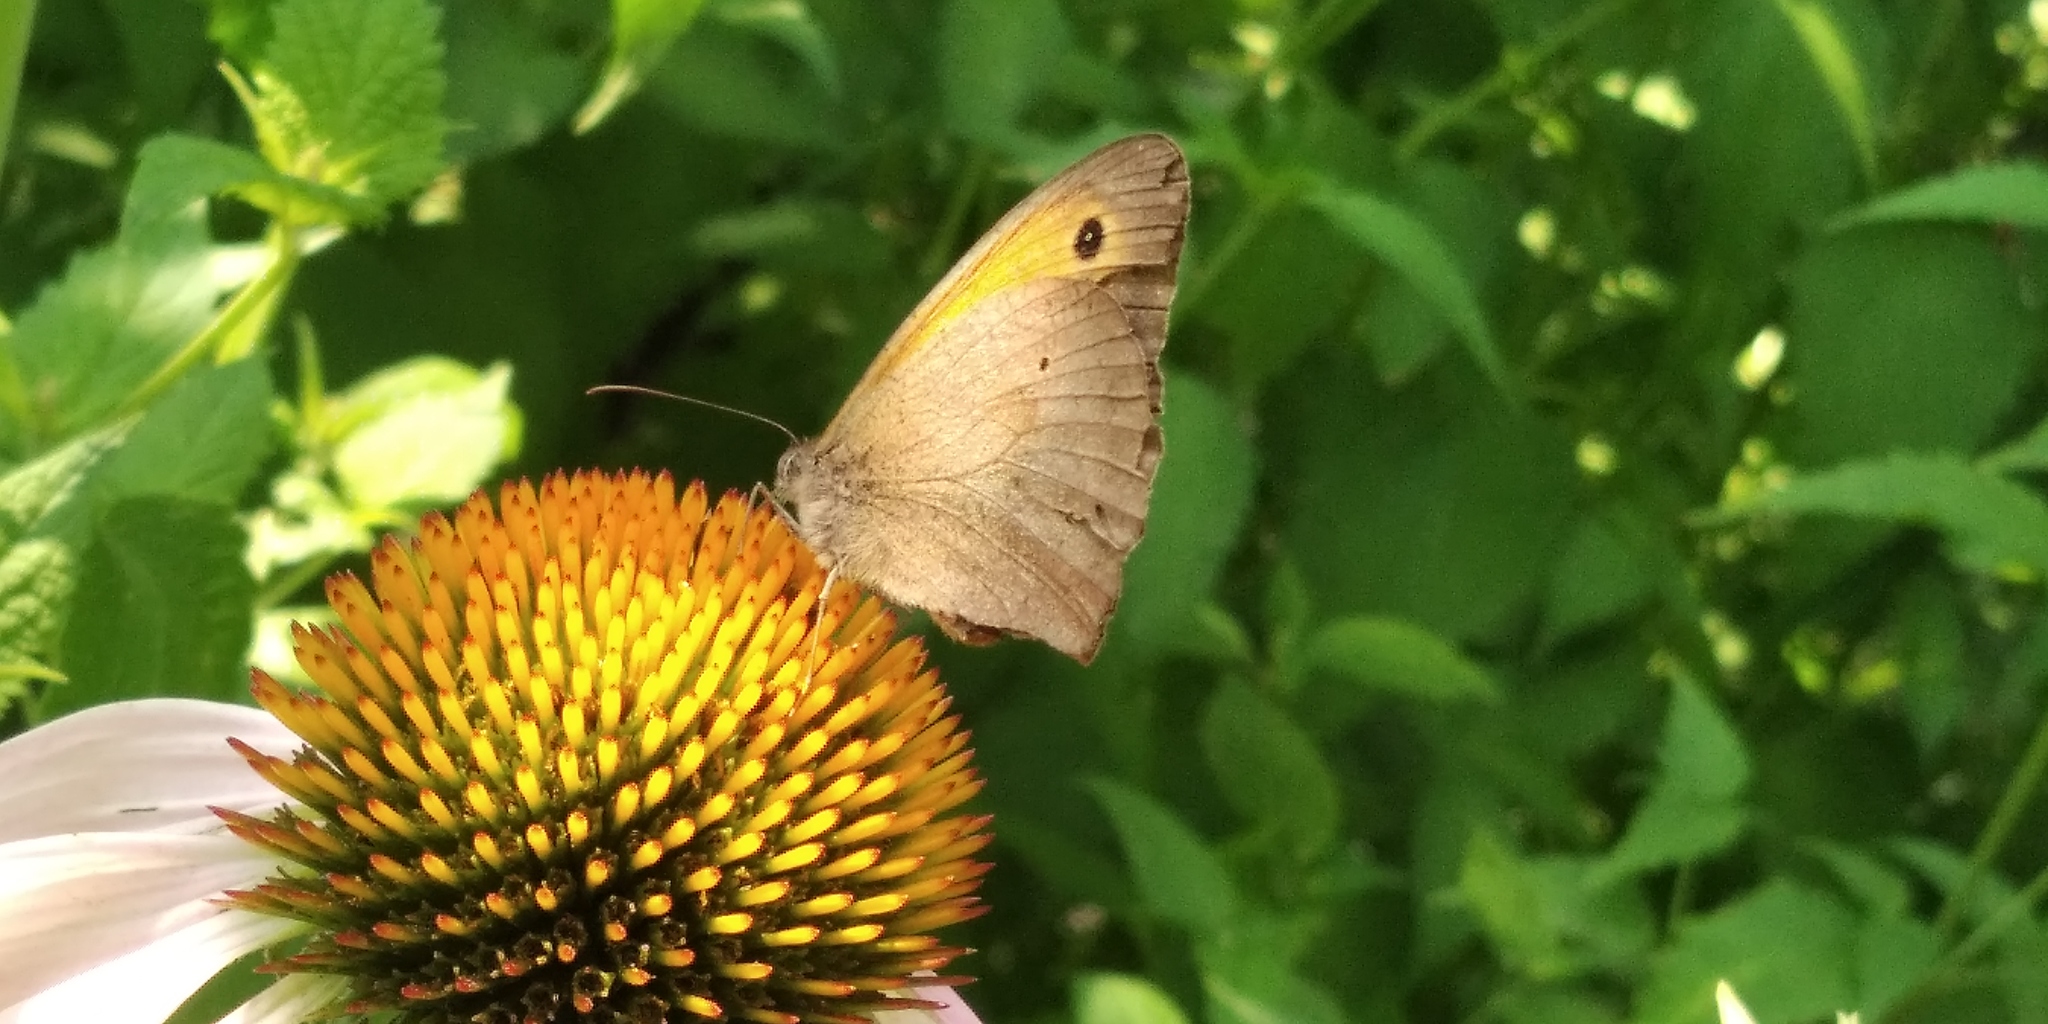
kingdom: Animalia
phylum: Arthropoda
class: Insecta
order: Lepidoptera
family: Nymphalidae
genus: Maniola
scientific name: Maniola jurtina
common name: Meadow brown
